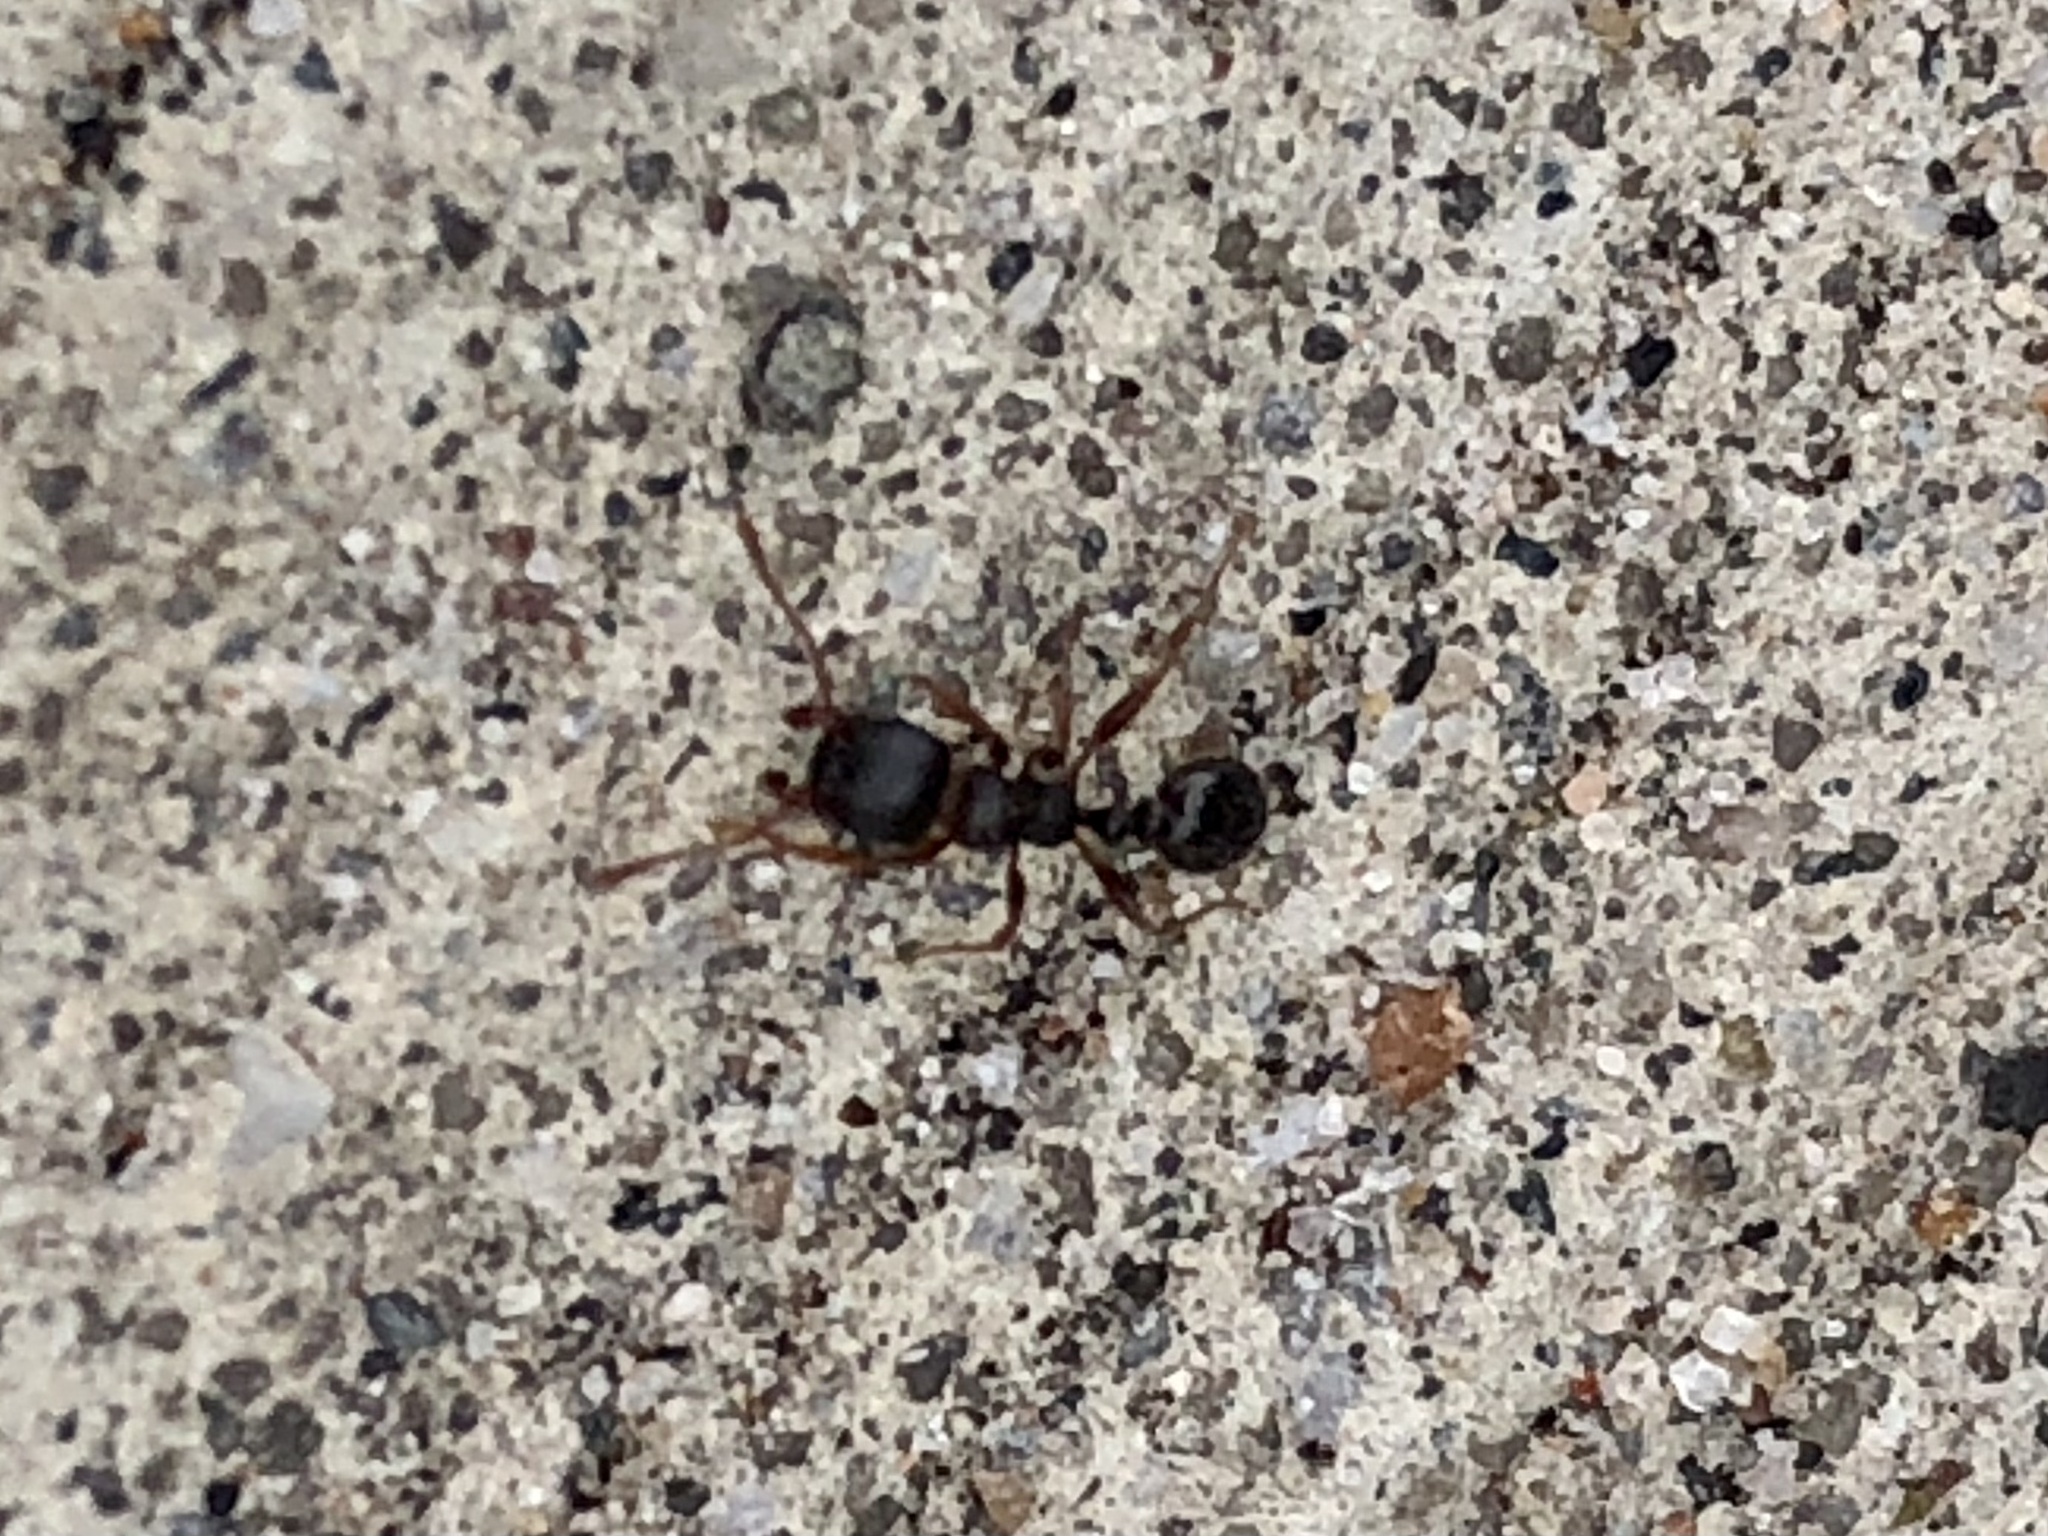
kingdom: Animalia
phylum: Arthropoda
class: Insecta
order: Hymenoptera
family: Formicidae
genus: Tetramorium
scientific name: Tetramorium immigrans
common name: Pavement ant
